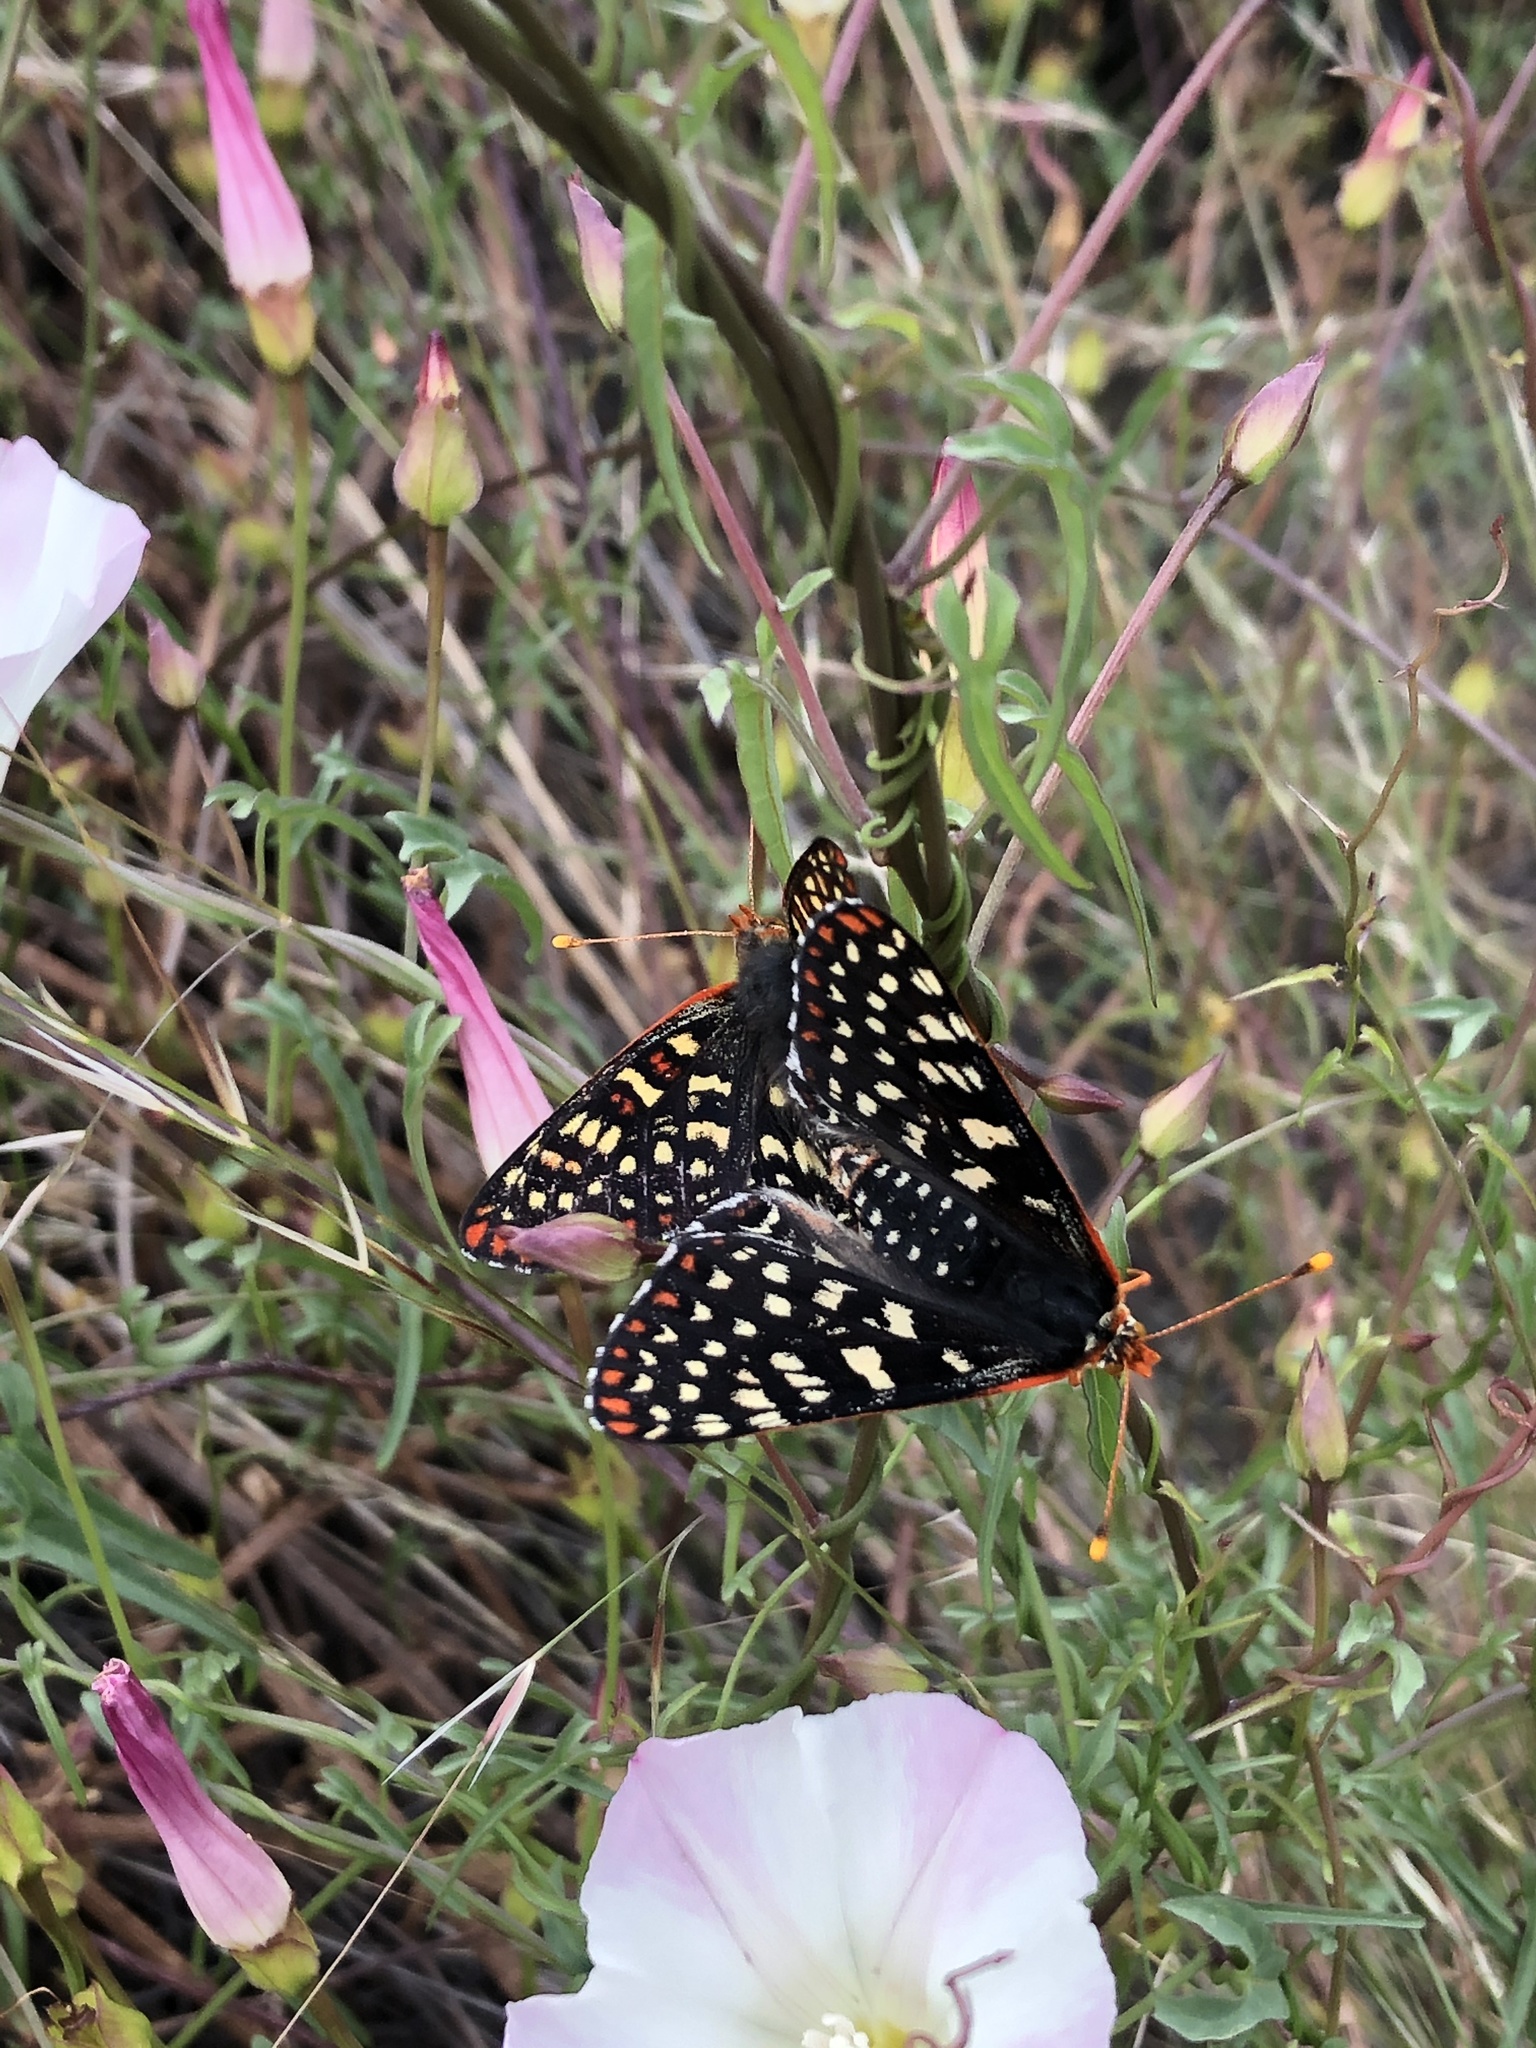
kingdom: Animalia
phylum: Arthropoda
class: Insecta
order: Lepidoptera
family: Nymphalidae
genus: Occidryas
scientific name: Occidryas chalcedona
